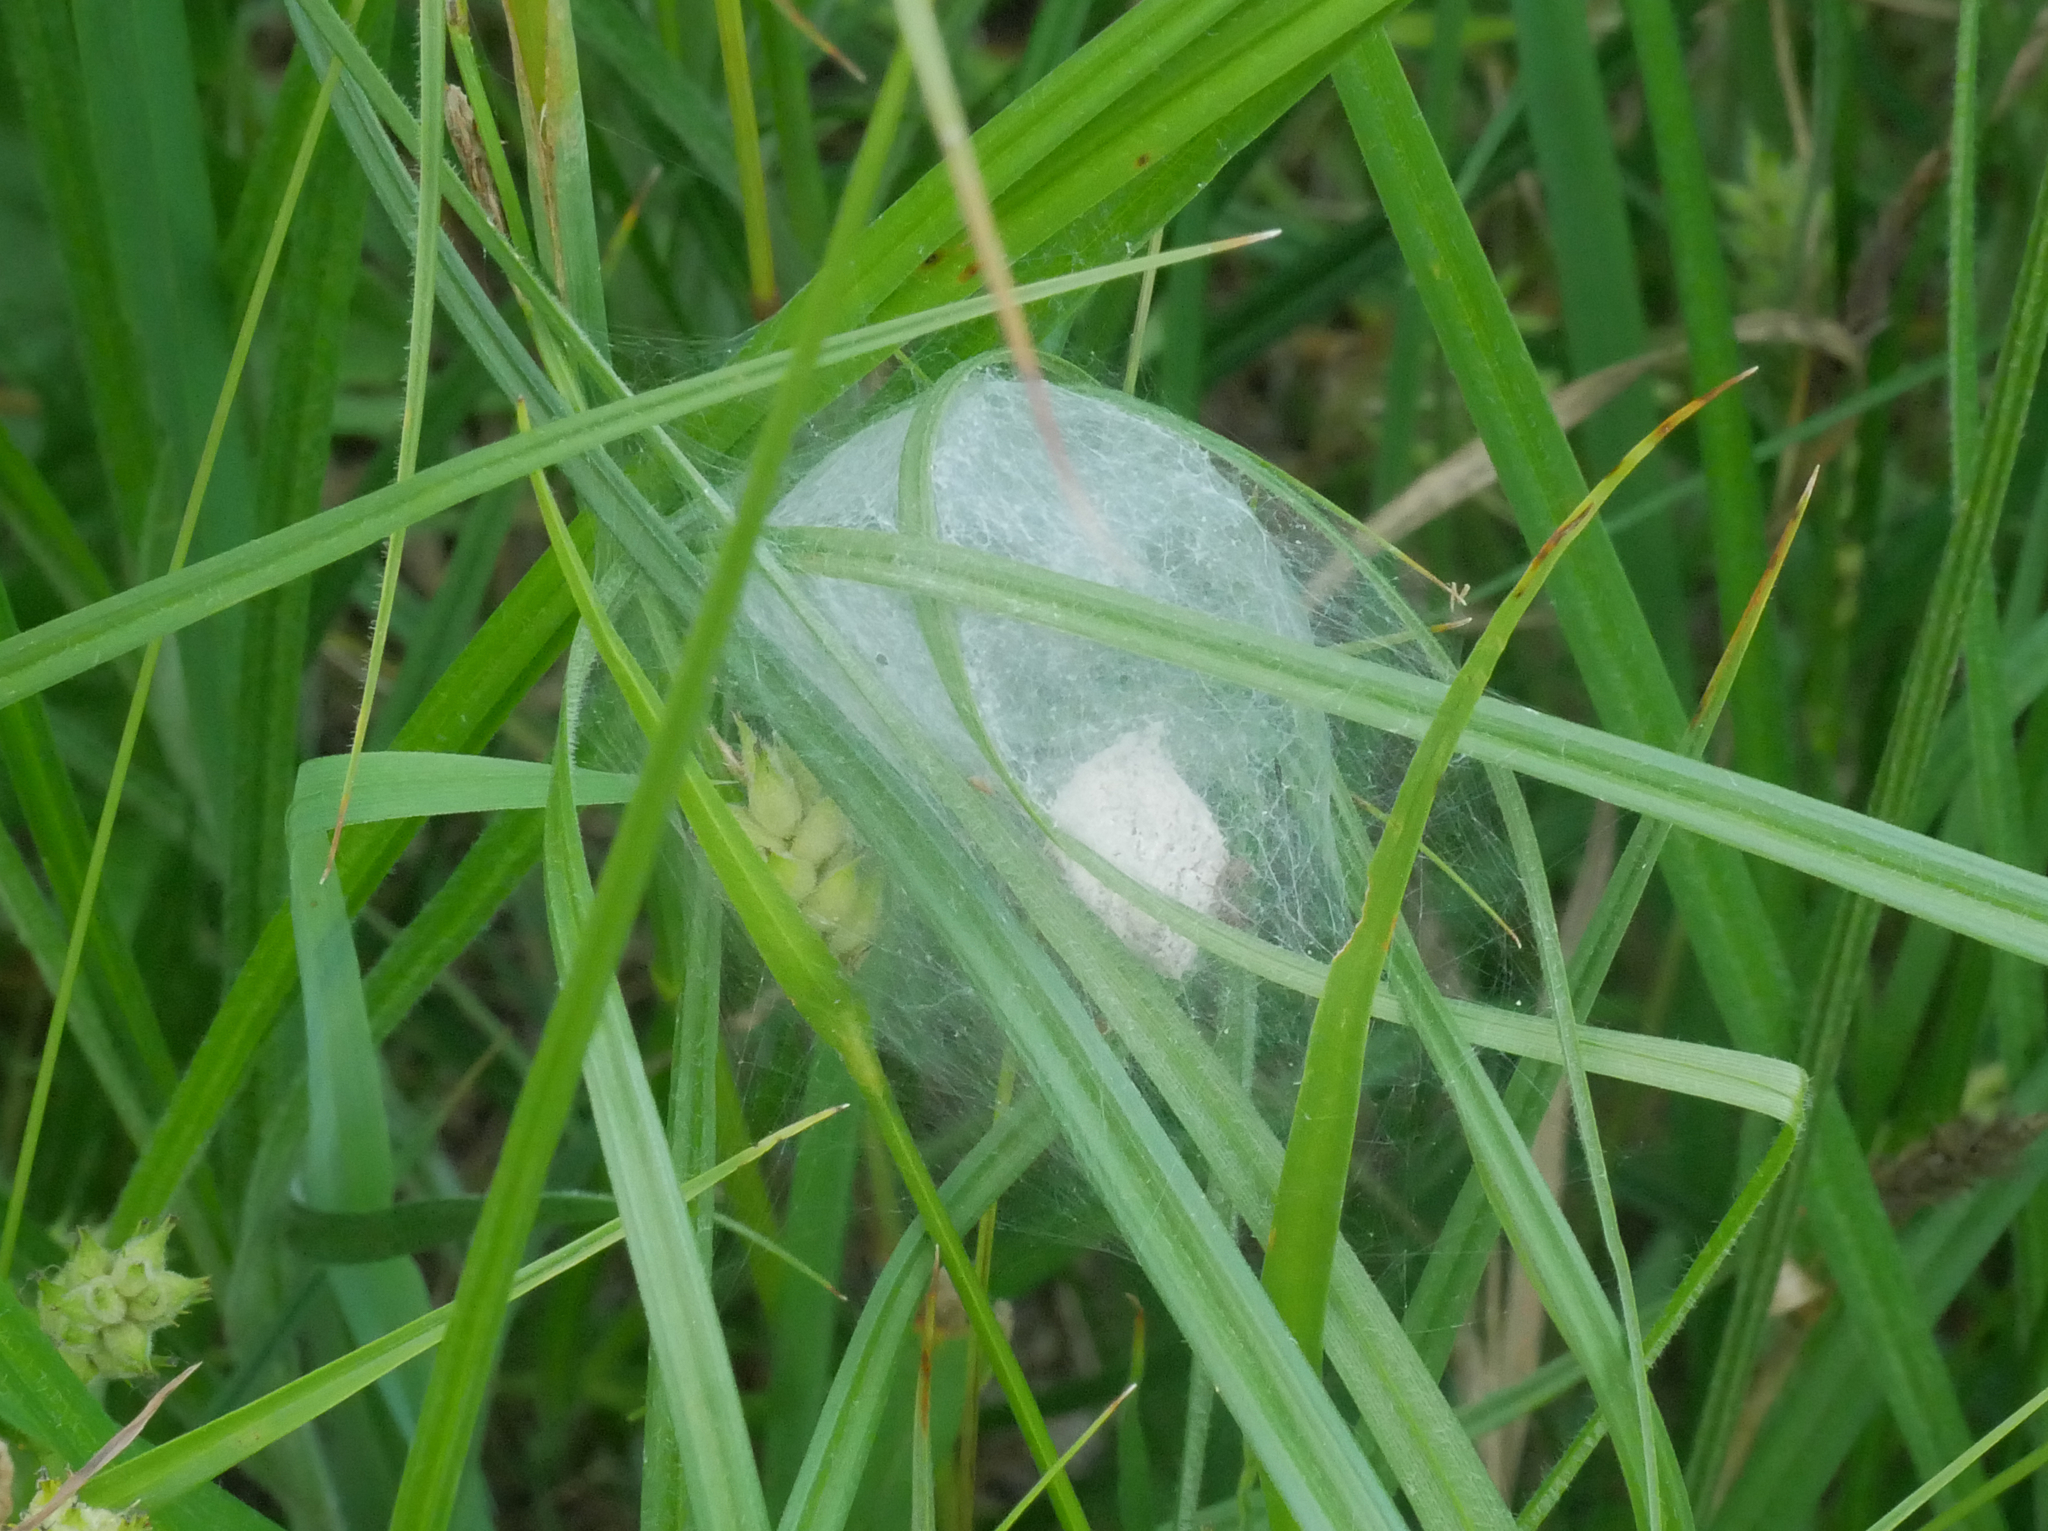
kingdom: Animalia
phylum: Arthropoda
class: Arachnida
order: Araneae
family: Pisauridae
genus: Pisaura
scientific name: Pisaura mirabilis
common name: Tent spider
